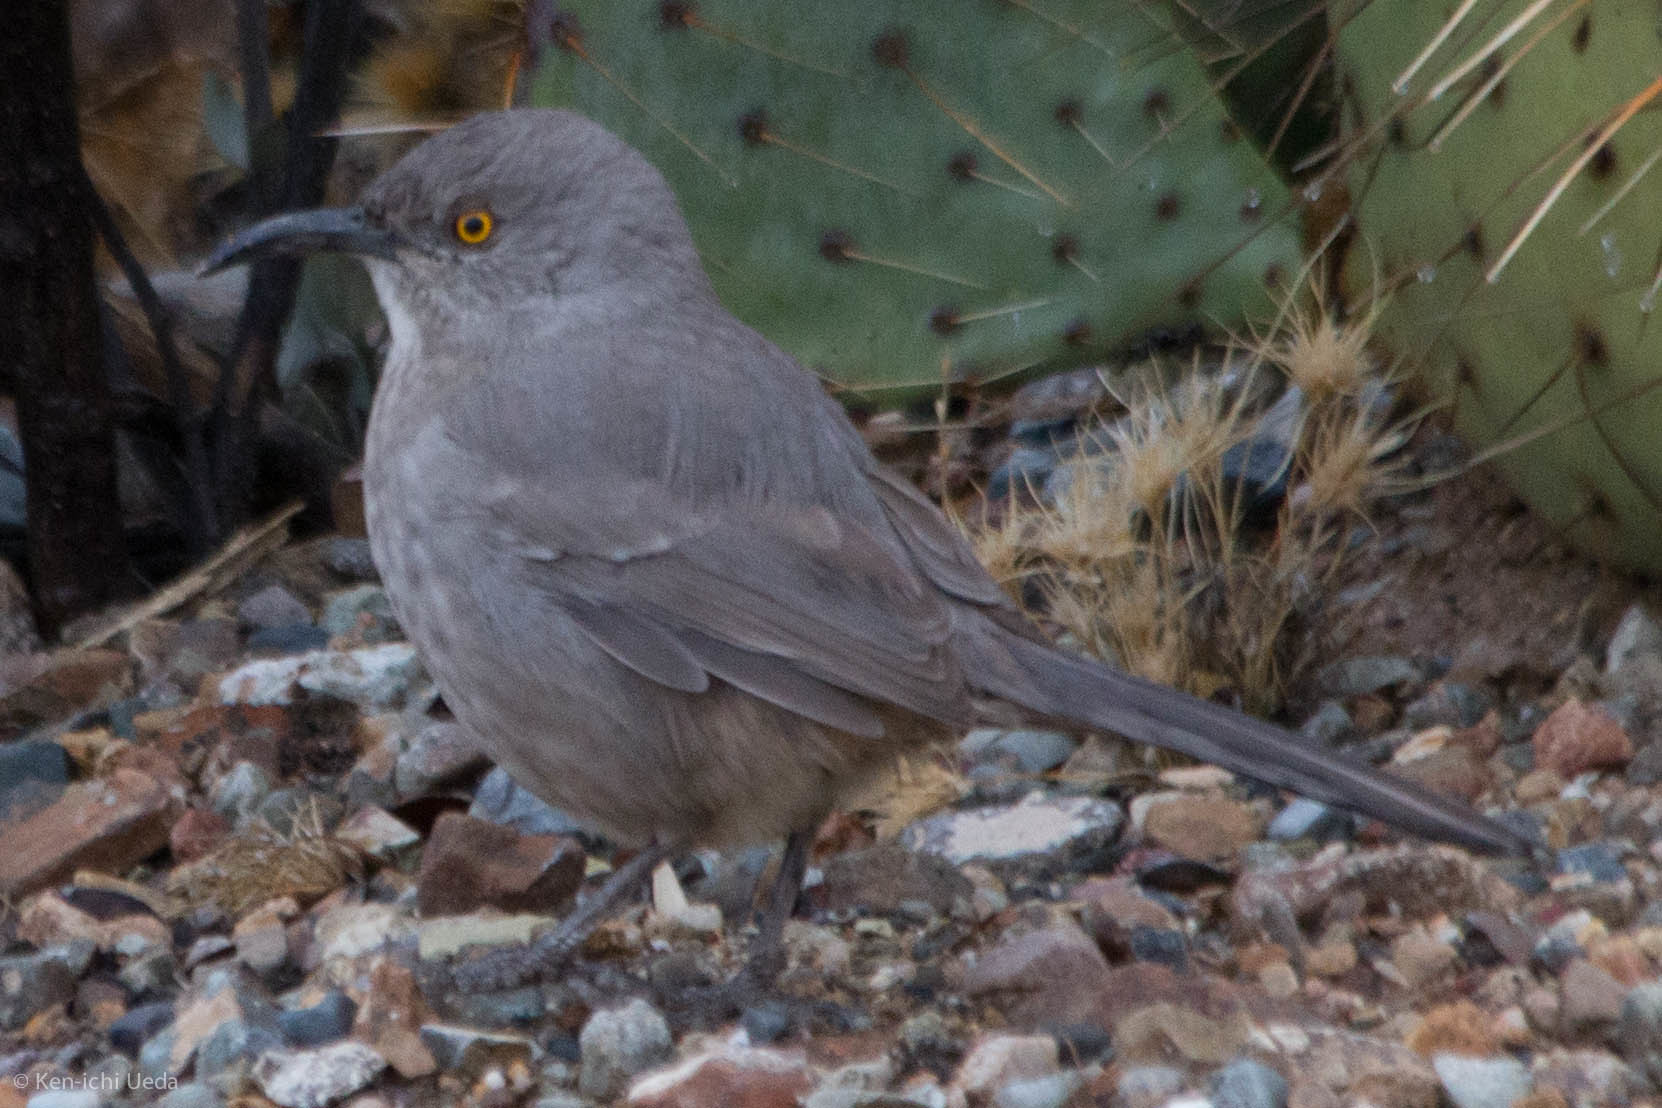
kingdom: Animalia
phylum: Chordata
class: Aves
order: Passeriformes
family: Mimidae
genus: Toxostoma
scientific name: Toxostoma curvirostre
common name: Curve-billed thrasher
